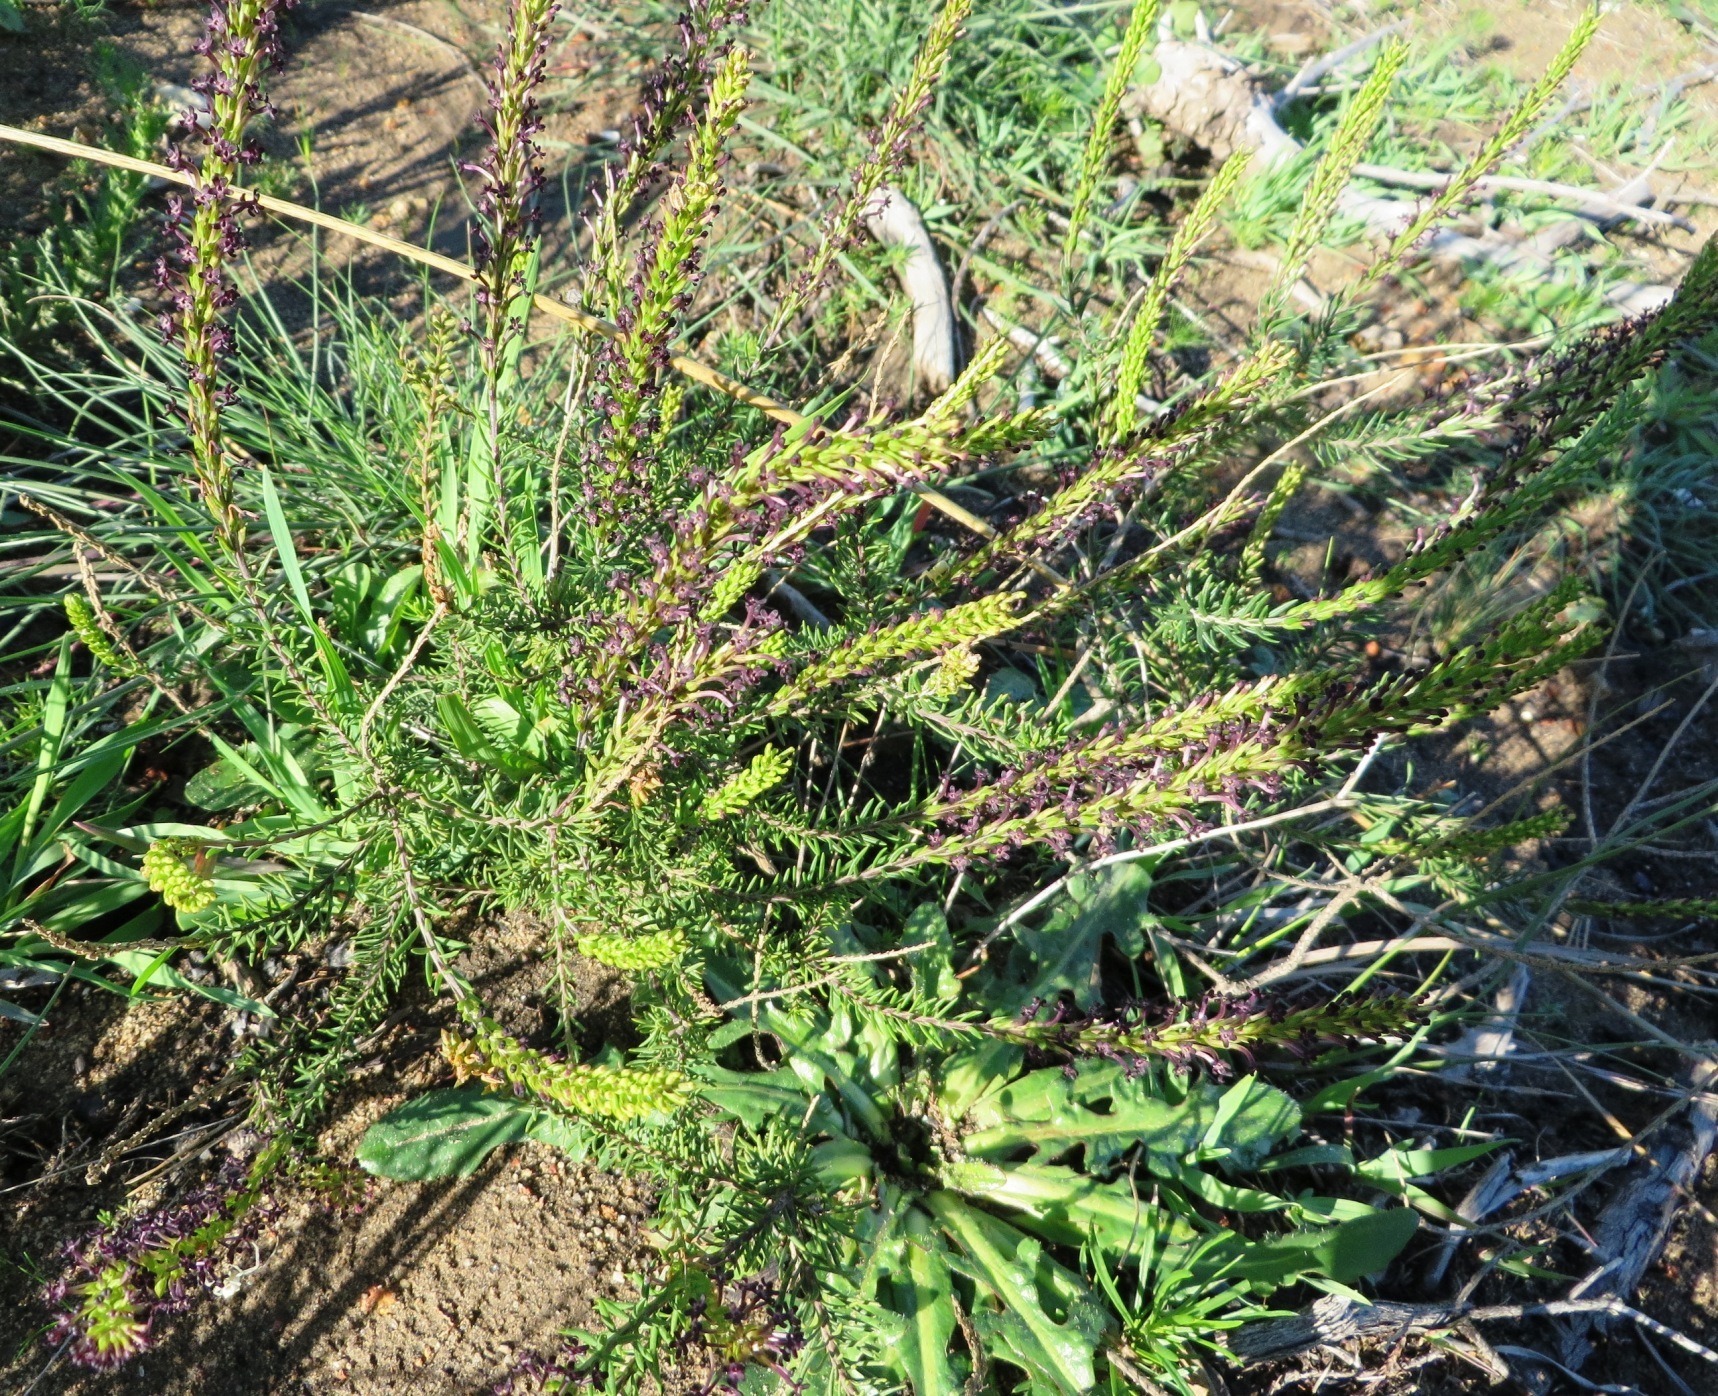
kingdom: Plantae
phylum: Tracheophyta
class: Magnoliopsida
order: Lamiales
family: Scrophulariaceae
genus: Microdon
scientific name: Microdon dubius
